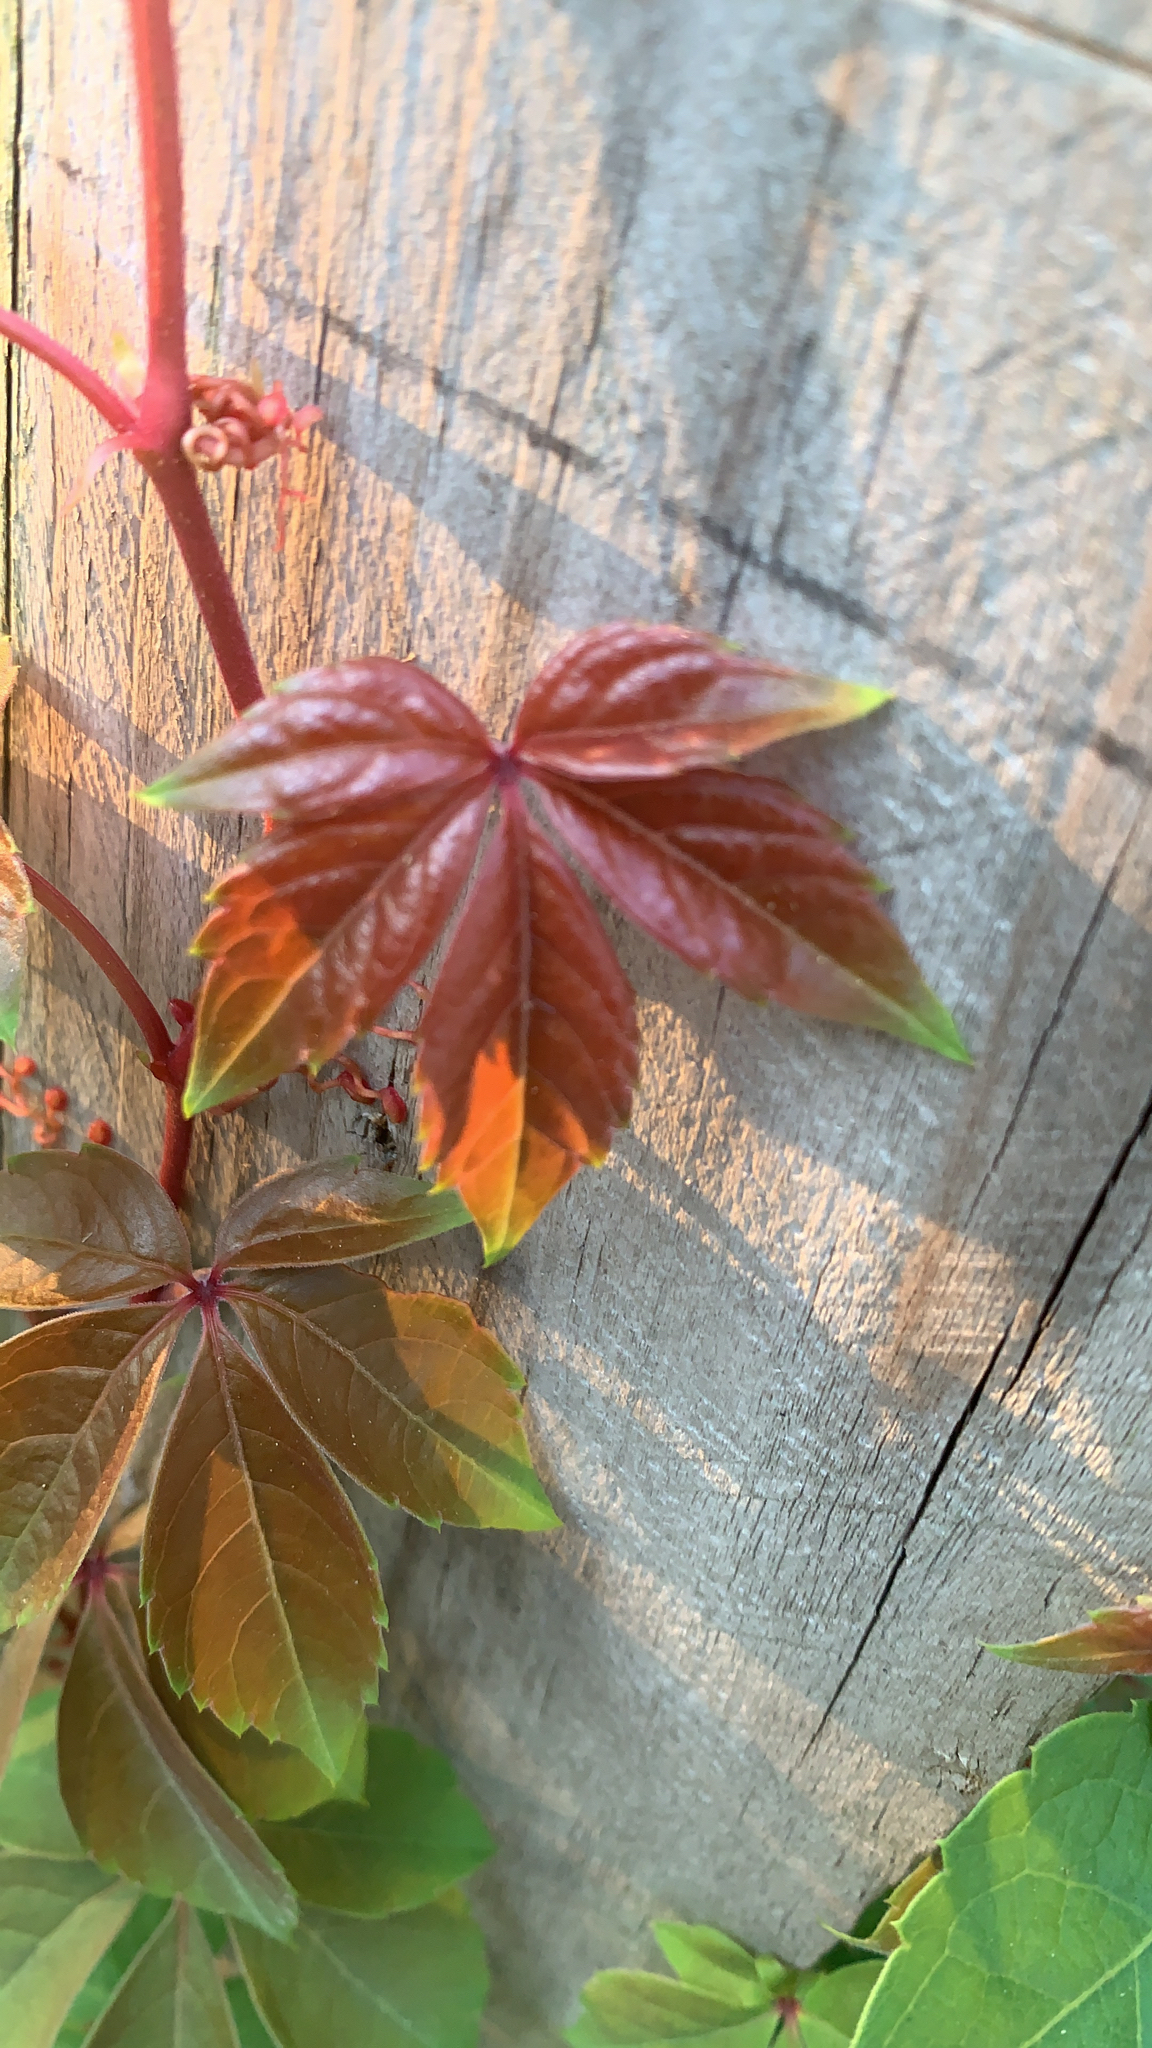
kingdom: Plantae
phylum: Tracheophyta
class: Magnoliopsida
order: Vitales
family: Vitaceae
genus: Parthenocissus
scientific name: Parthenocissus quinquefolia
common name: Virginia-creeper
